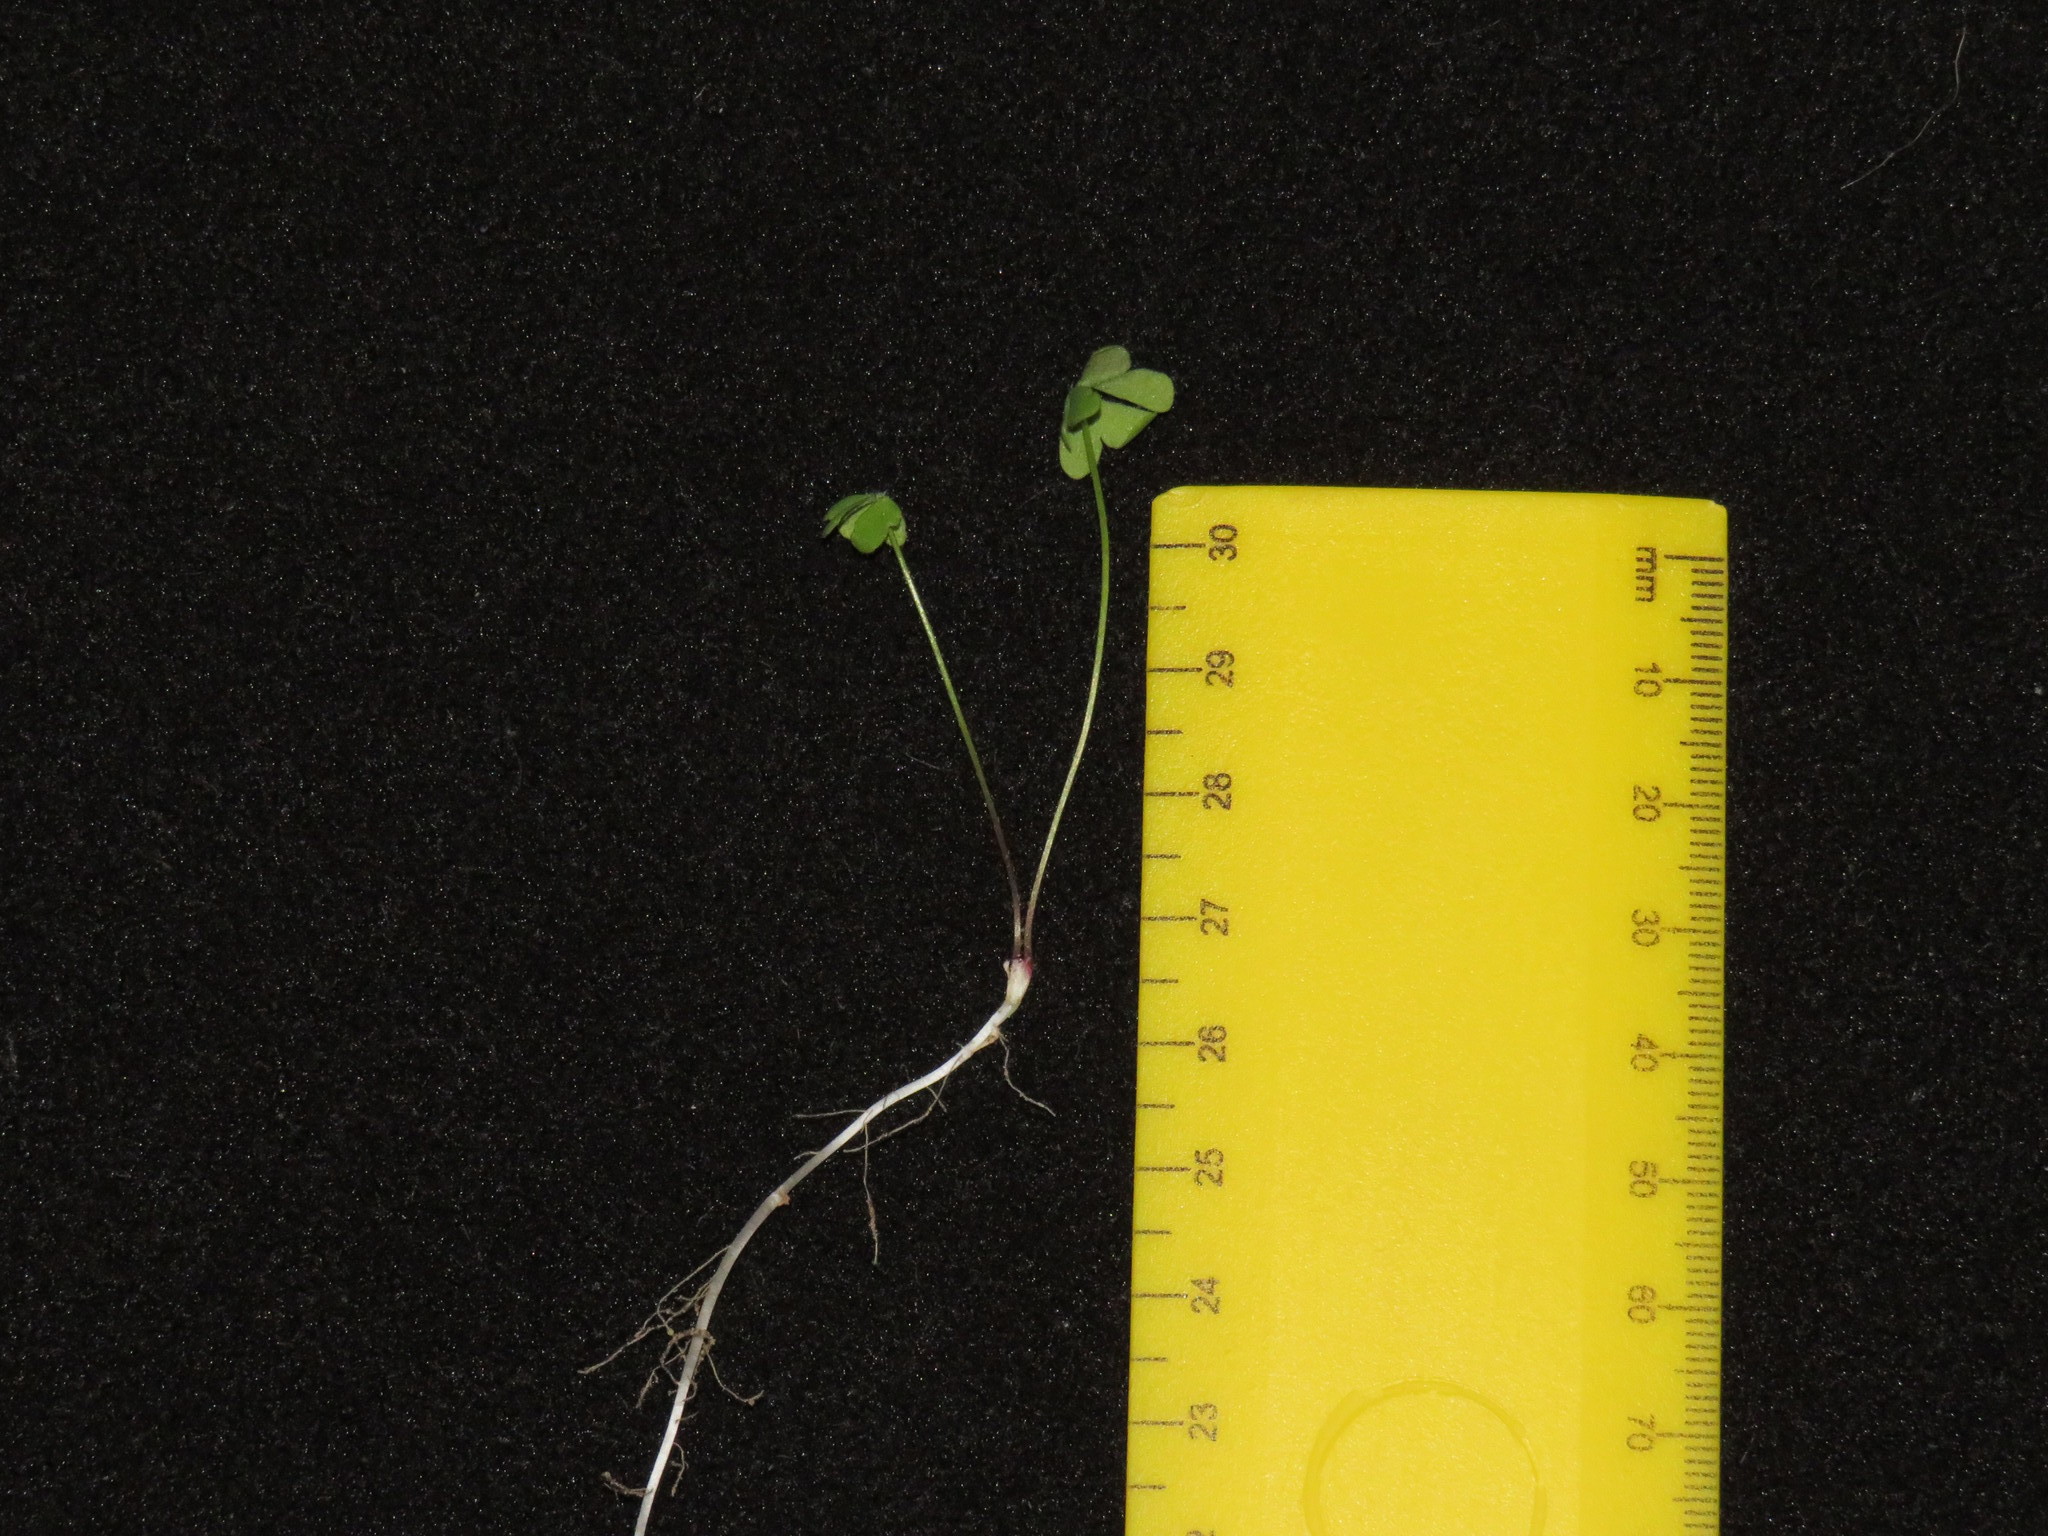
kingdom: Plantae
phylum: Tracheophyta
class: Magnoliopsida
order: Oxalidales
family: Oxalidaceae
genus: Oxalis
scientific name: Oxalis caprina
